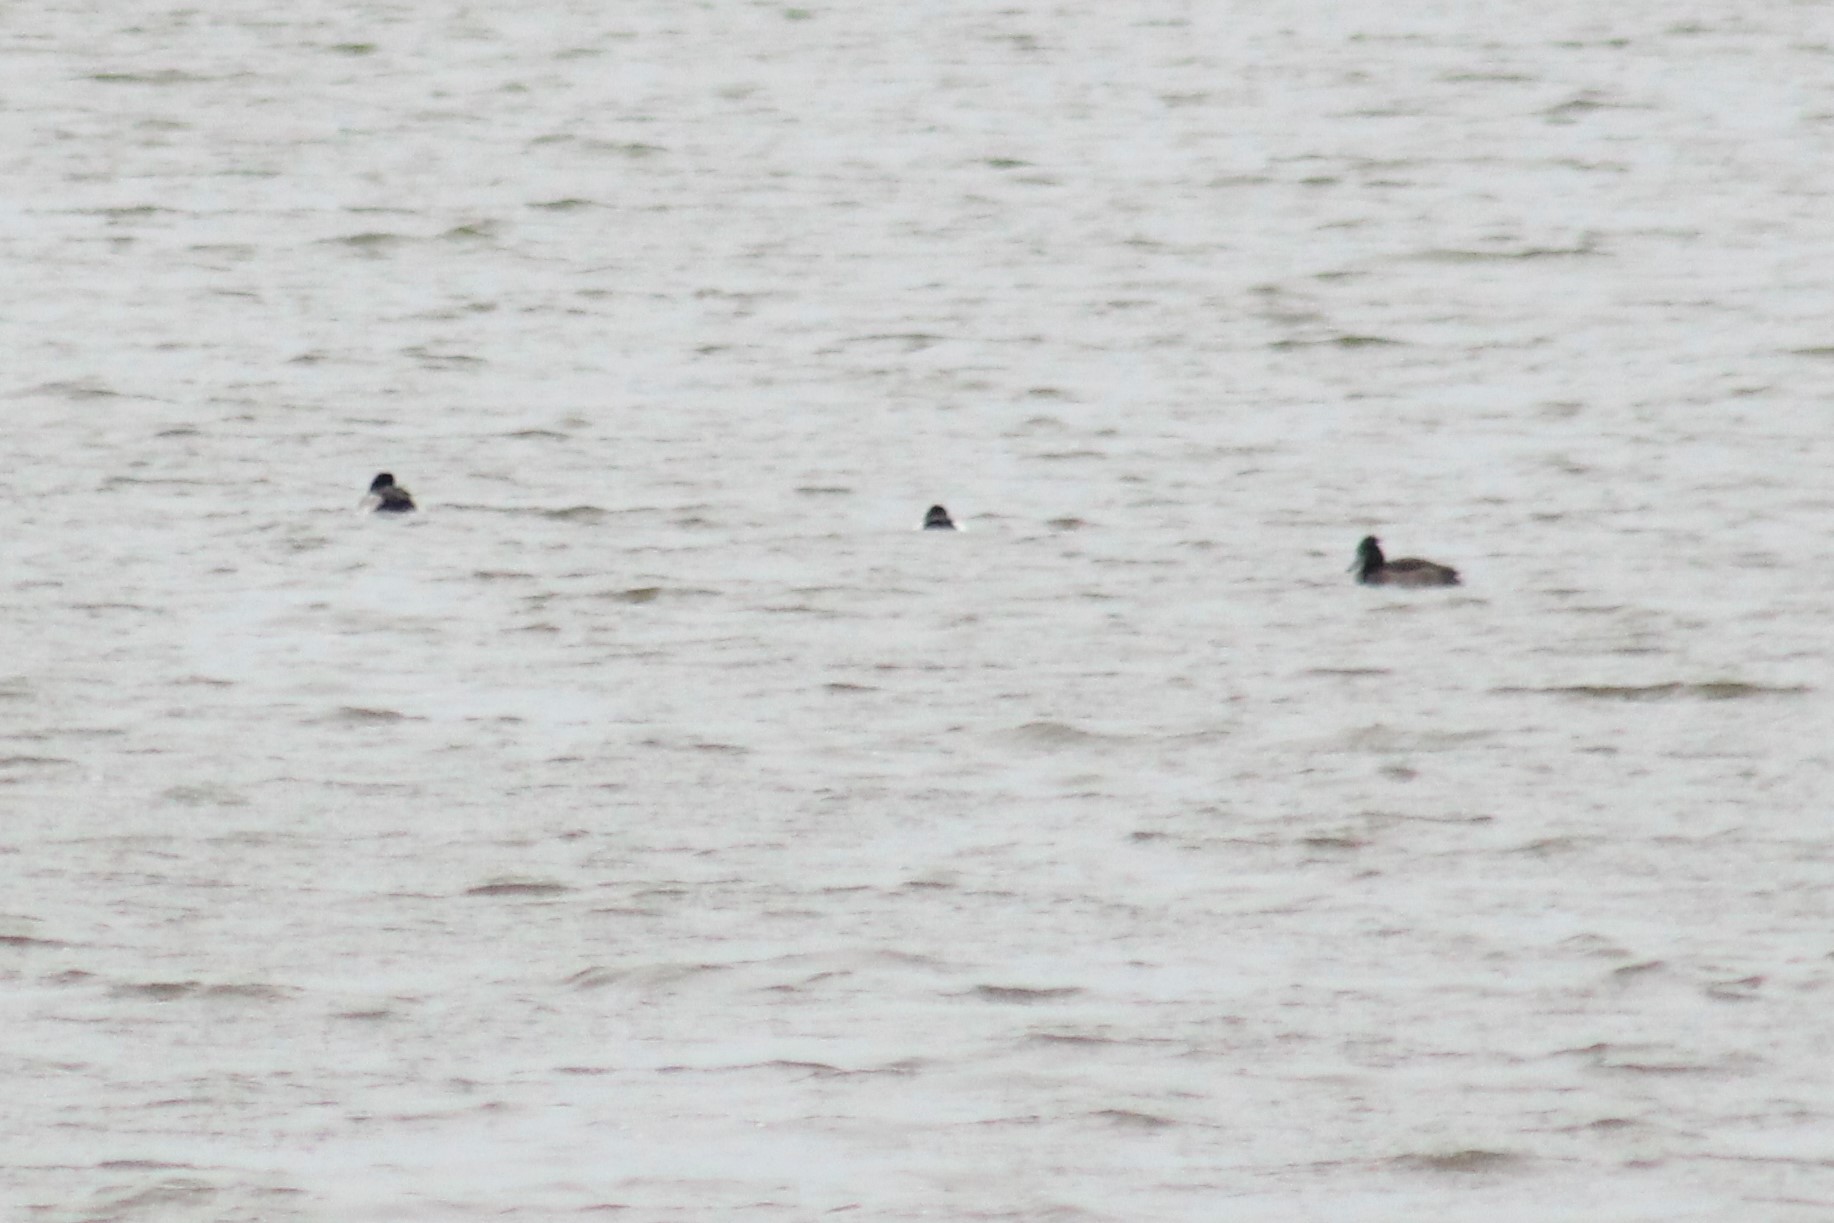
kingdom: Animalia
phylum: Chordata
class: Aves
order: Anseriformes
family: Anatidae
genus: Aythya
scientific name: Aythya fuligula
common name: Tufted duck
